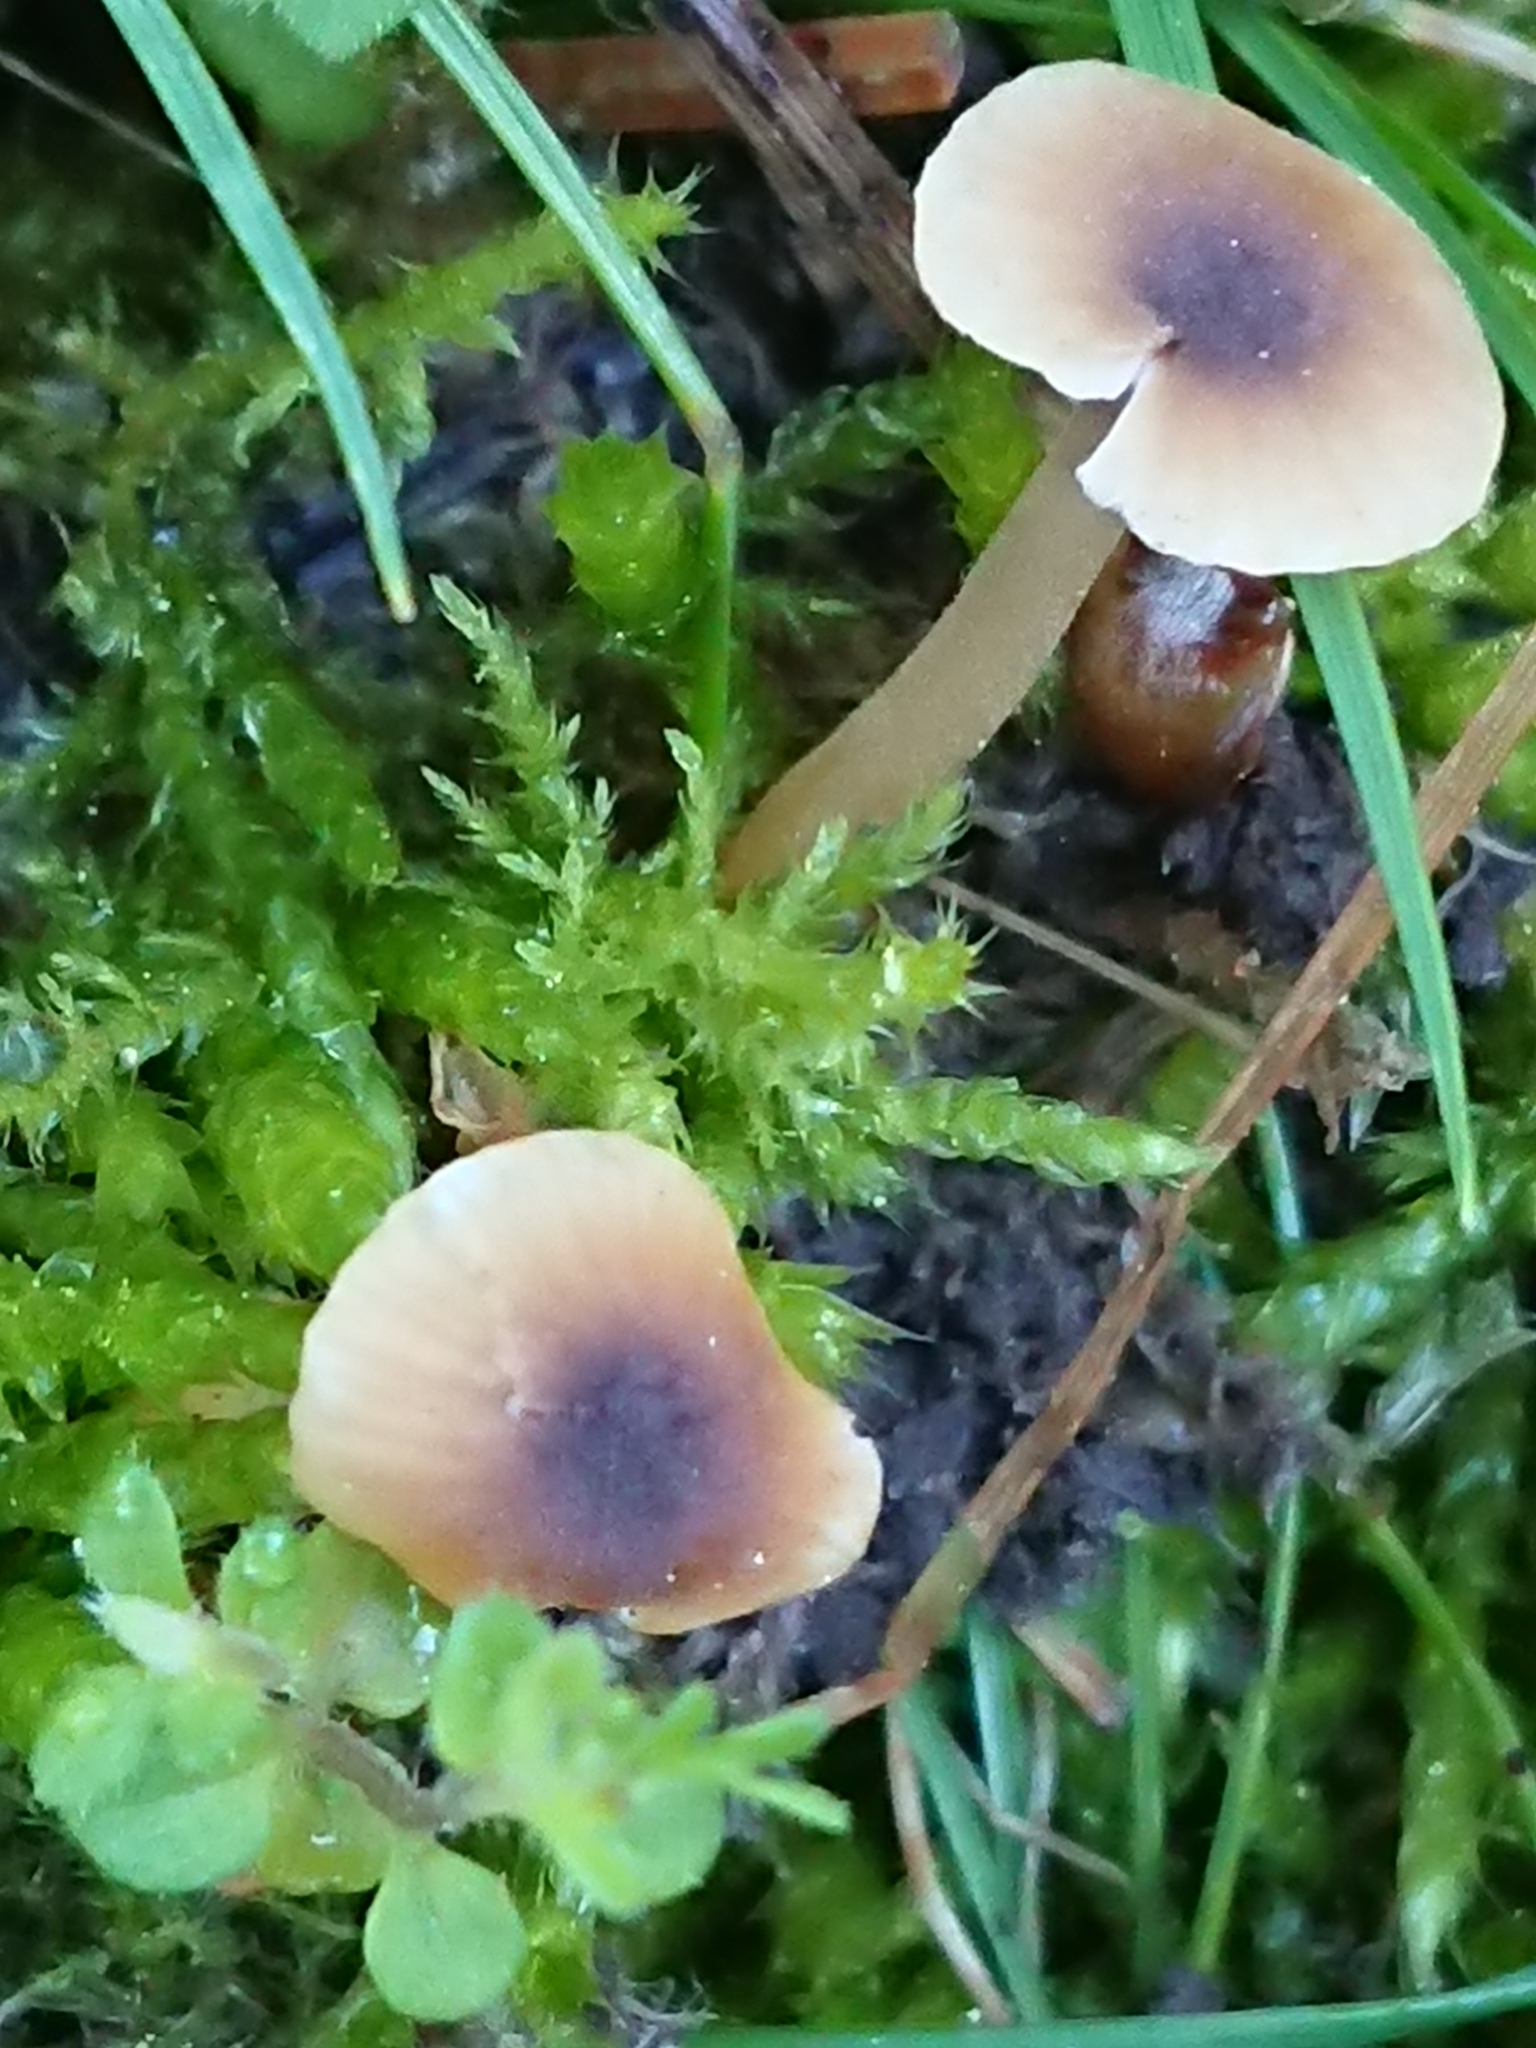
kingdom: Fungi
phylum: Basidiomycota
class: Agaricomycetes
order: Hymenochaetales
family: Rickenellaceae
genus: Rickenella
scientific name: Rickenella swartzii
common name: Collared mosscap
